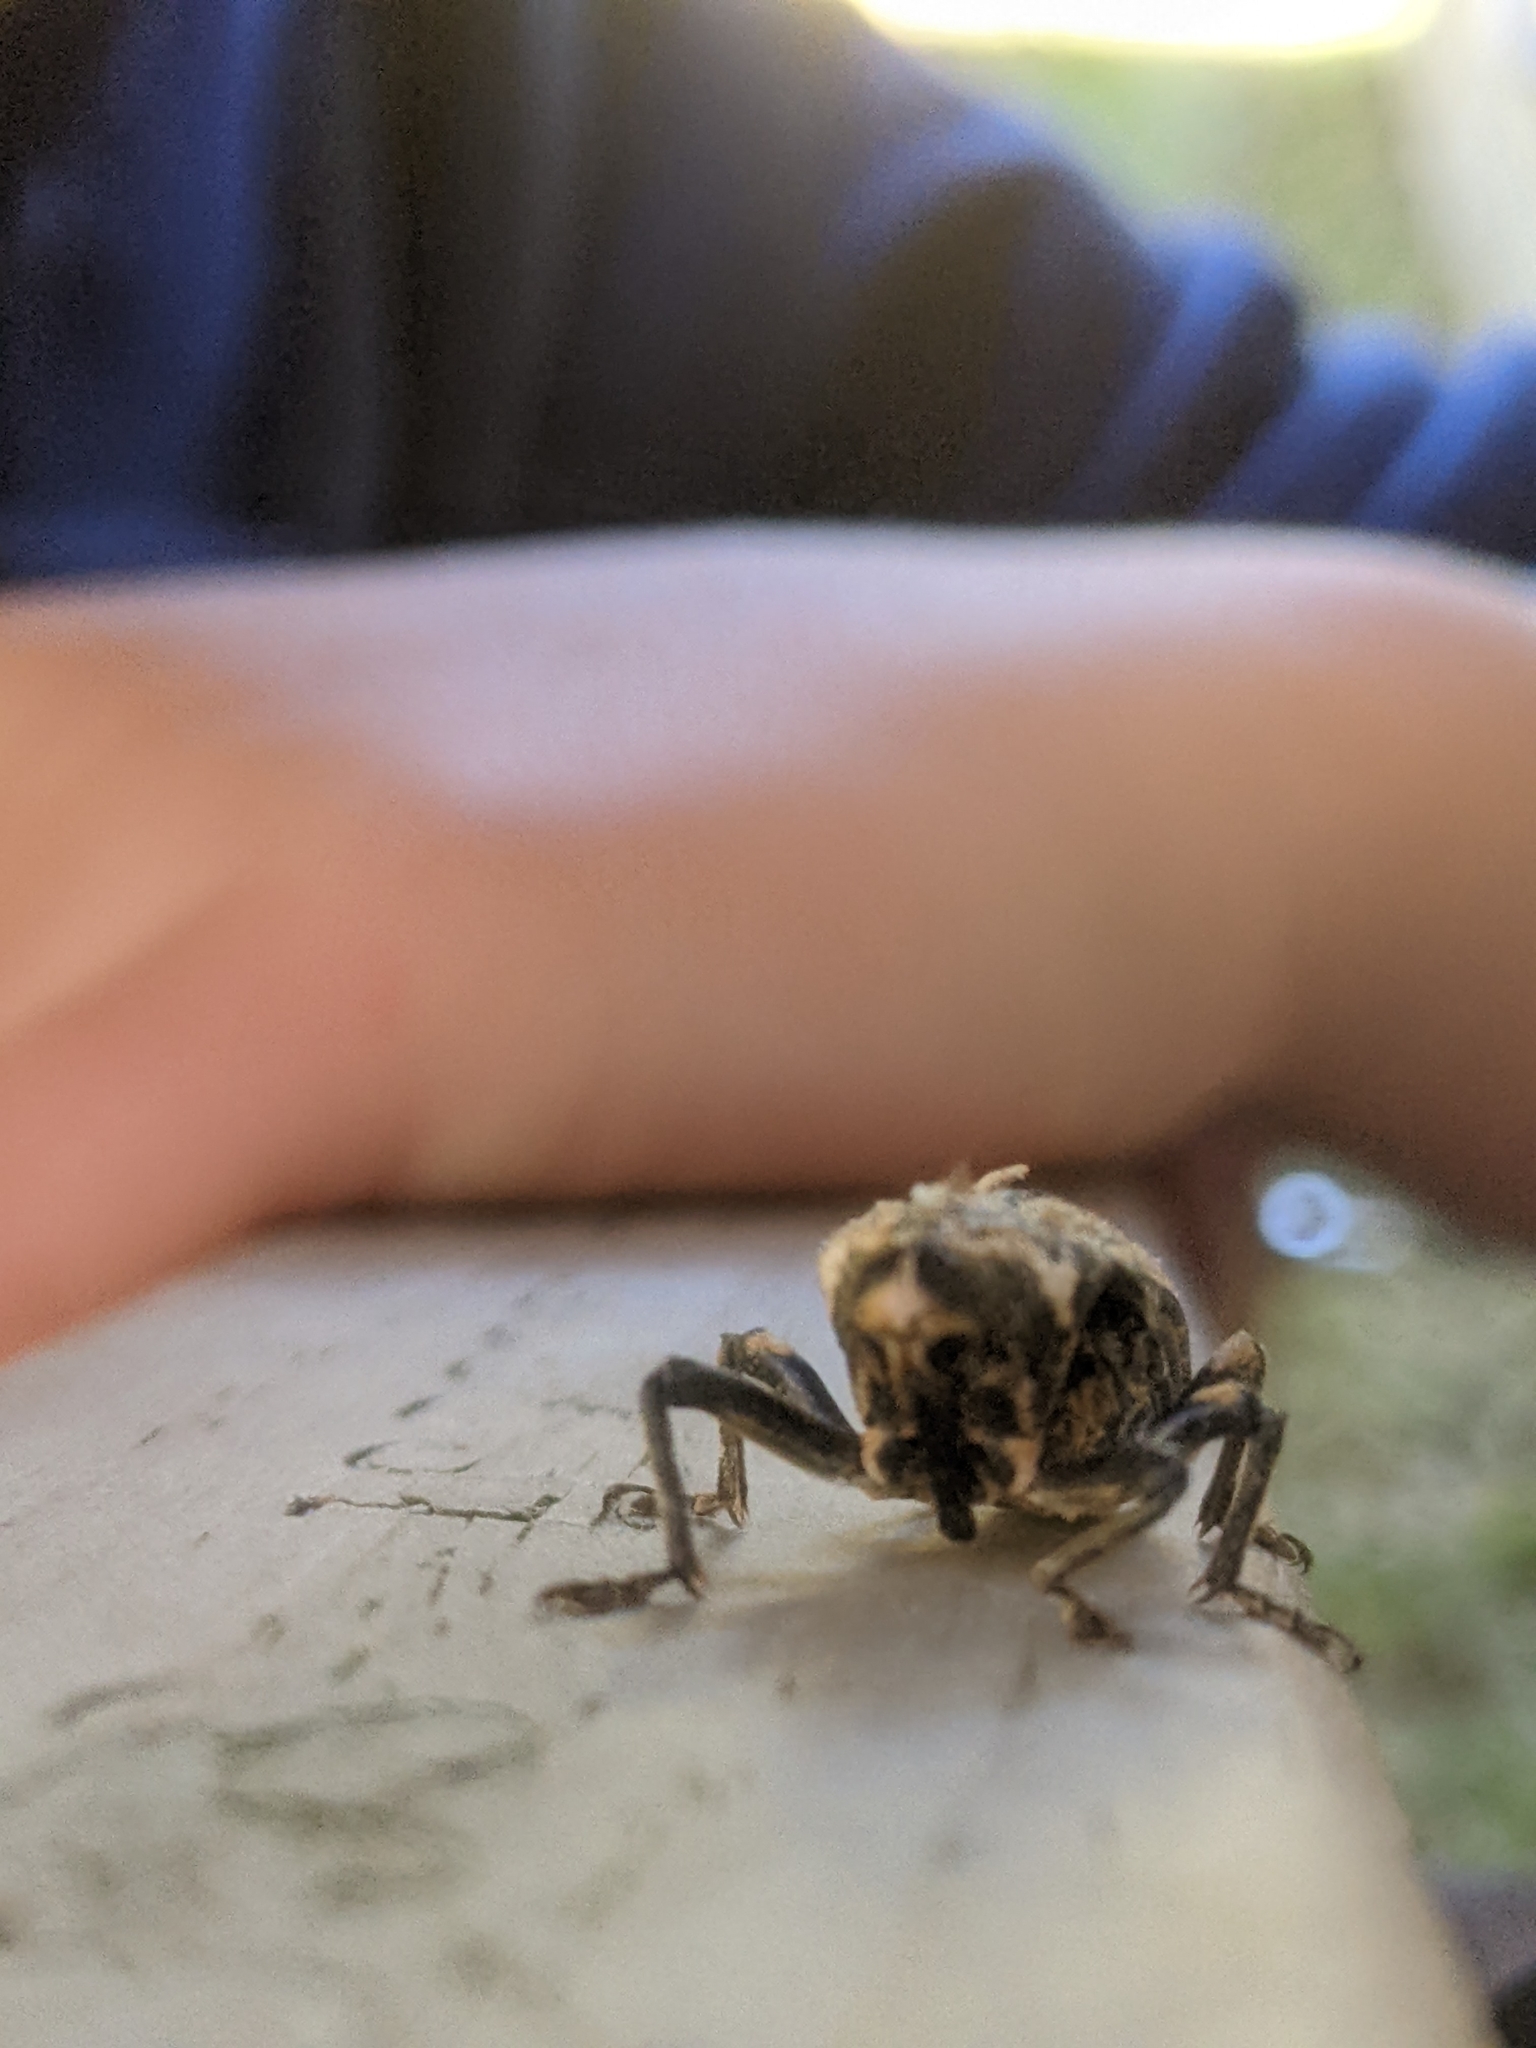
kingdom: Animalia
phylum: Arthropoda
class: Insecta
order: Coleoptera
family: Curculionidae
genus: Rhynchodes
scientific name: Rhynchodes ursus
